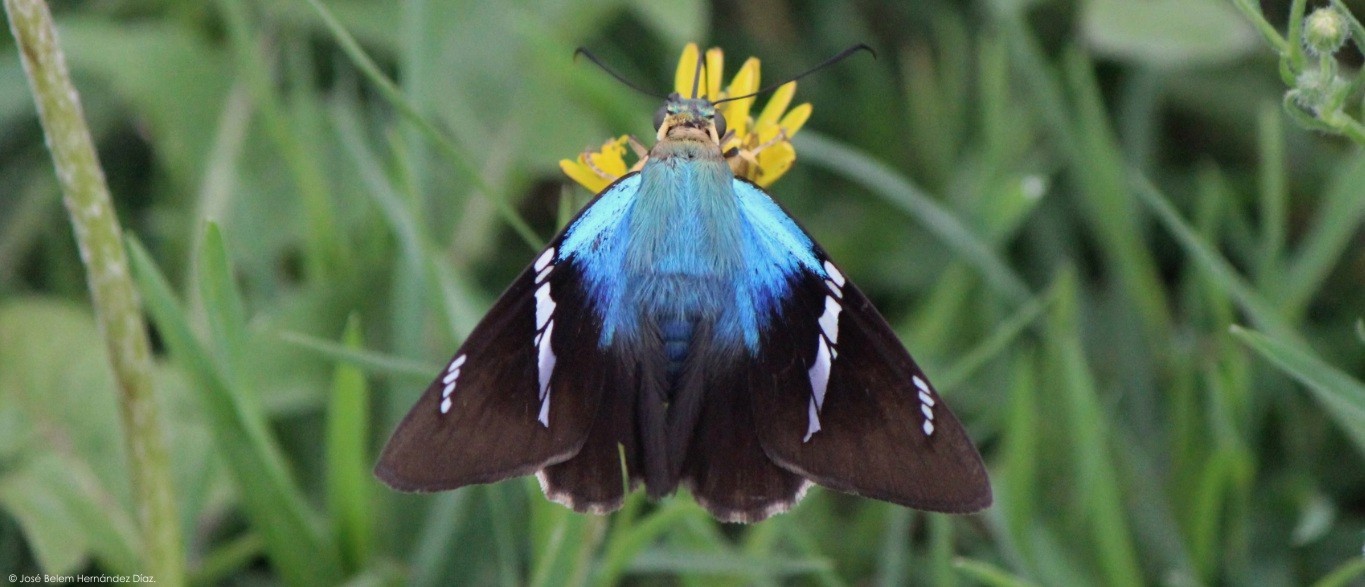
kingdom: Animalia
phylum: Arthropoda
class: Insecta
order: Lepidoptera
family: Hesperiidae
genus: Astraptes
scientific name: Astraptes fulgerator
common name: Two-barred flasher
